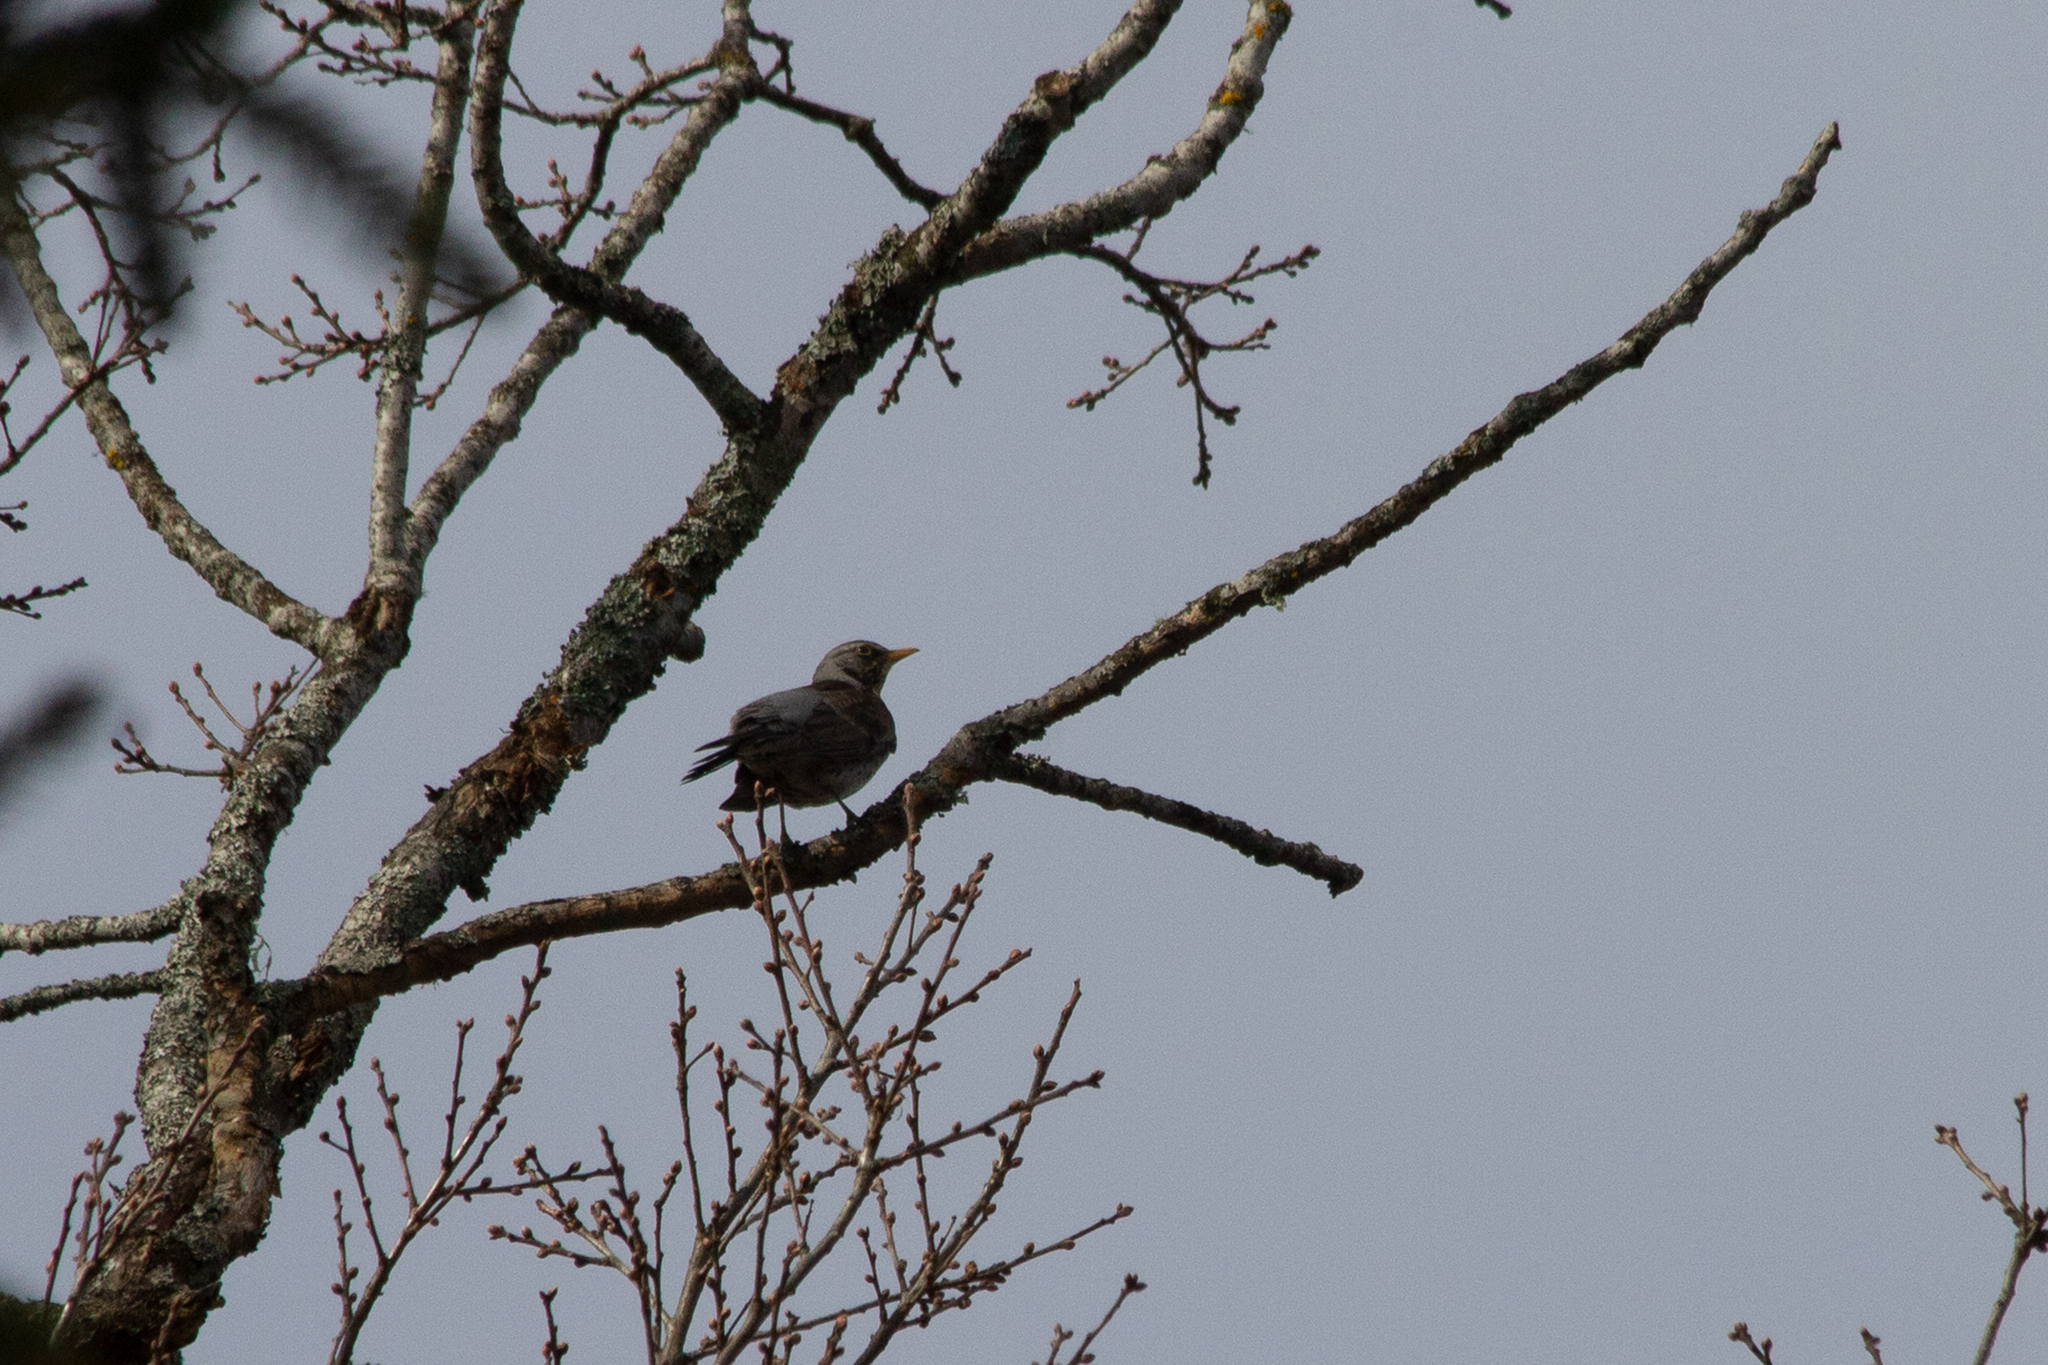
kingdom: Animalia
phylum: Chordata
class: Aves
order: Passeriformes
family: Turdidae
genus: Turdus
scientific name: Turdus pilaris
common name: Fieldfare
